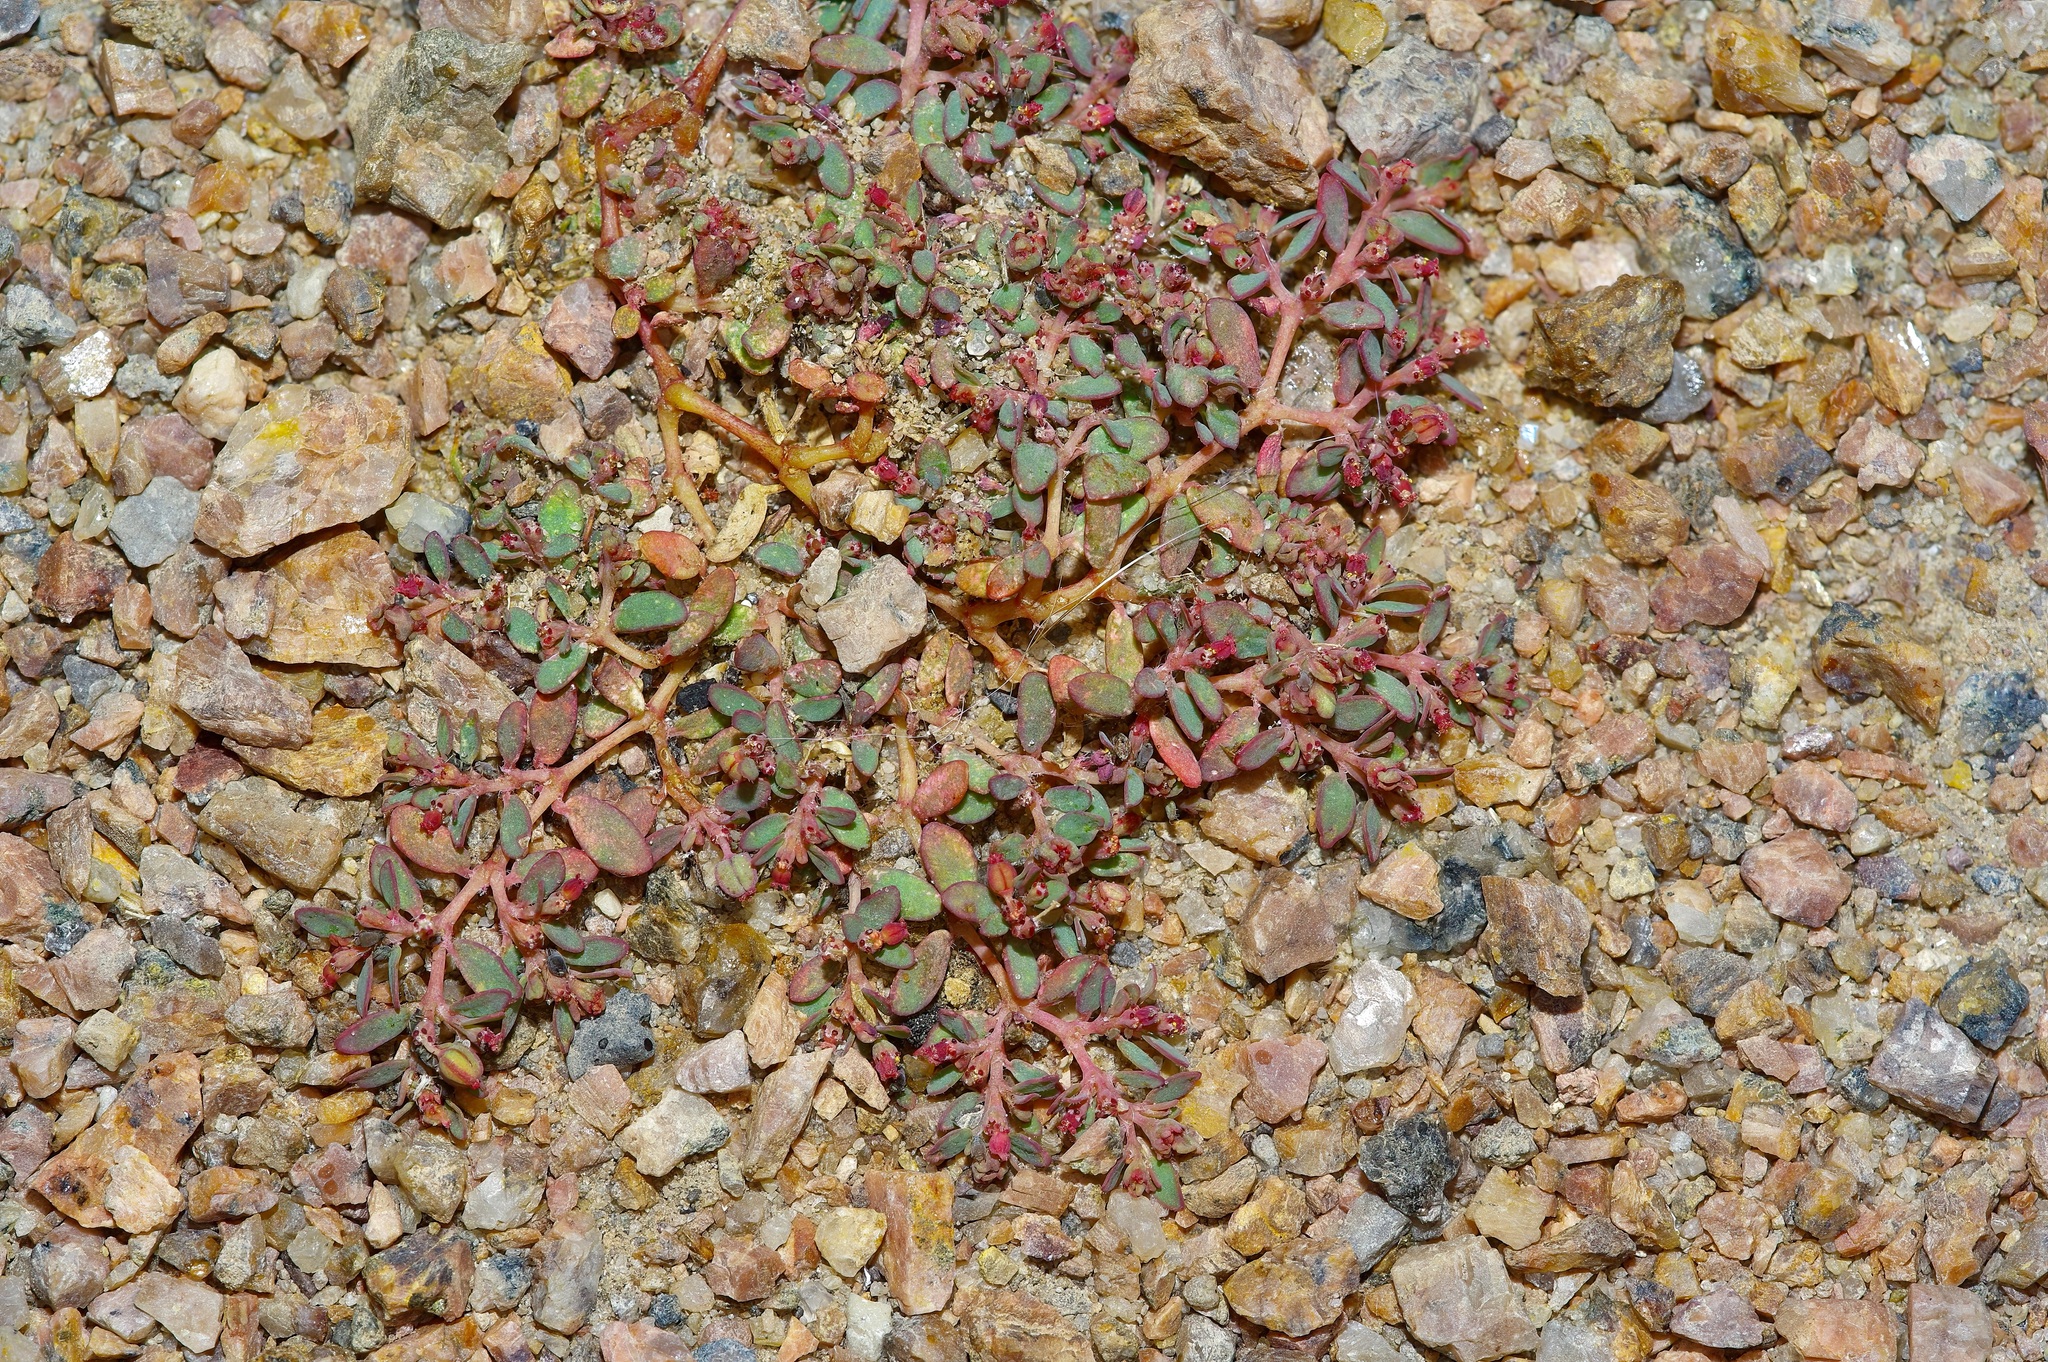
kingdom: Plantae
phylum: Tracheophyta
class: Magnoliopsida
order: Malpighiales
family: Euphorbiaceae
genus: Euphorbia
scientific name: Euphorbia micromera
